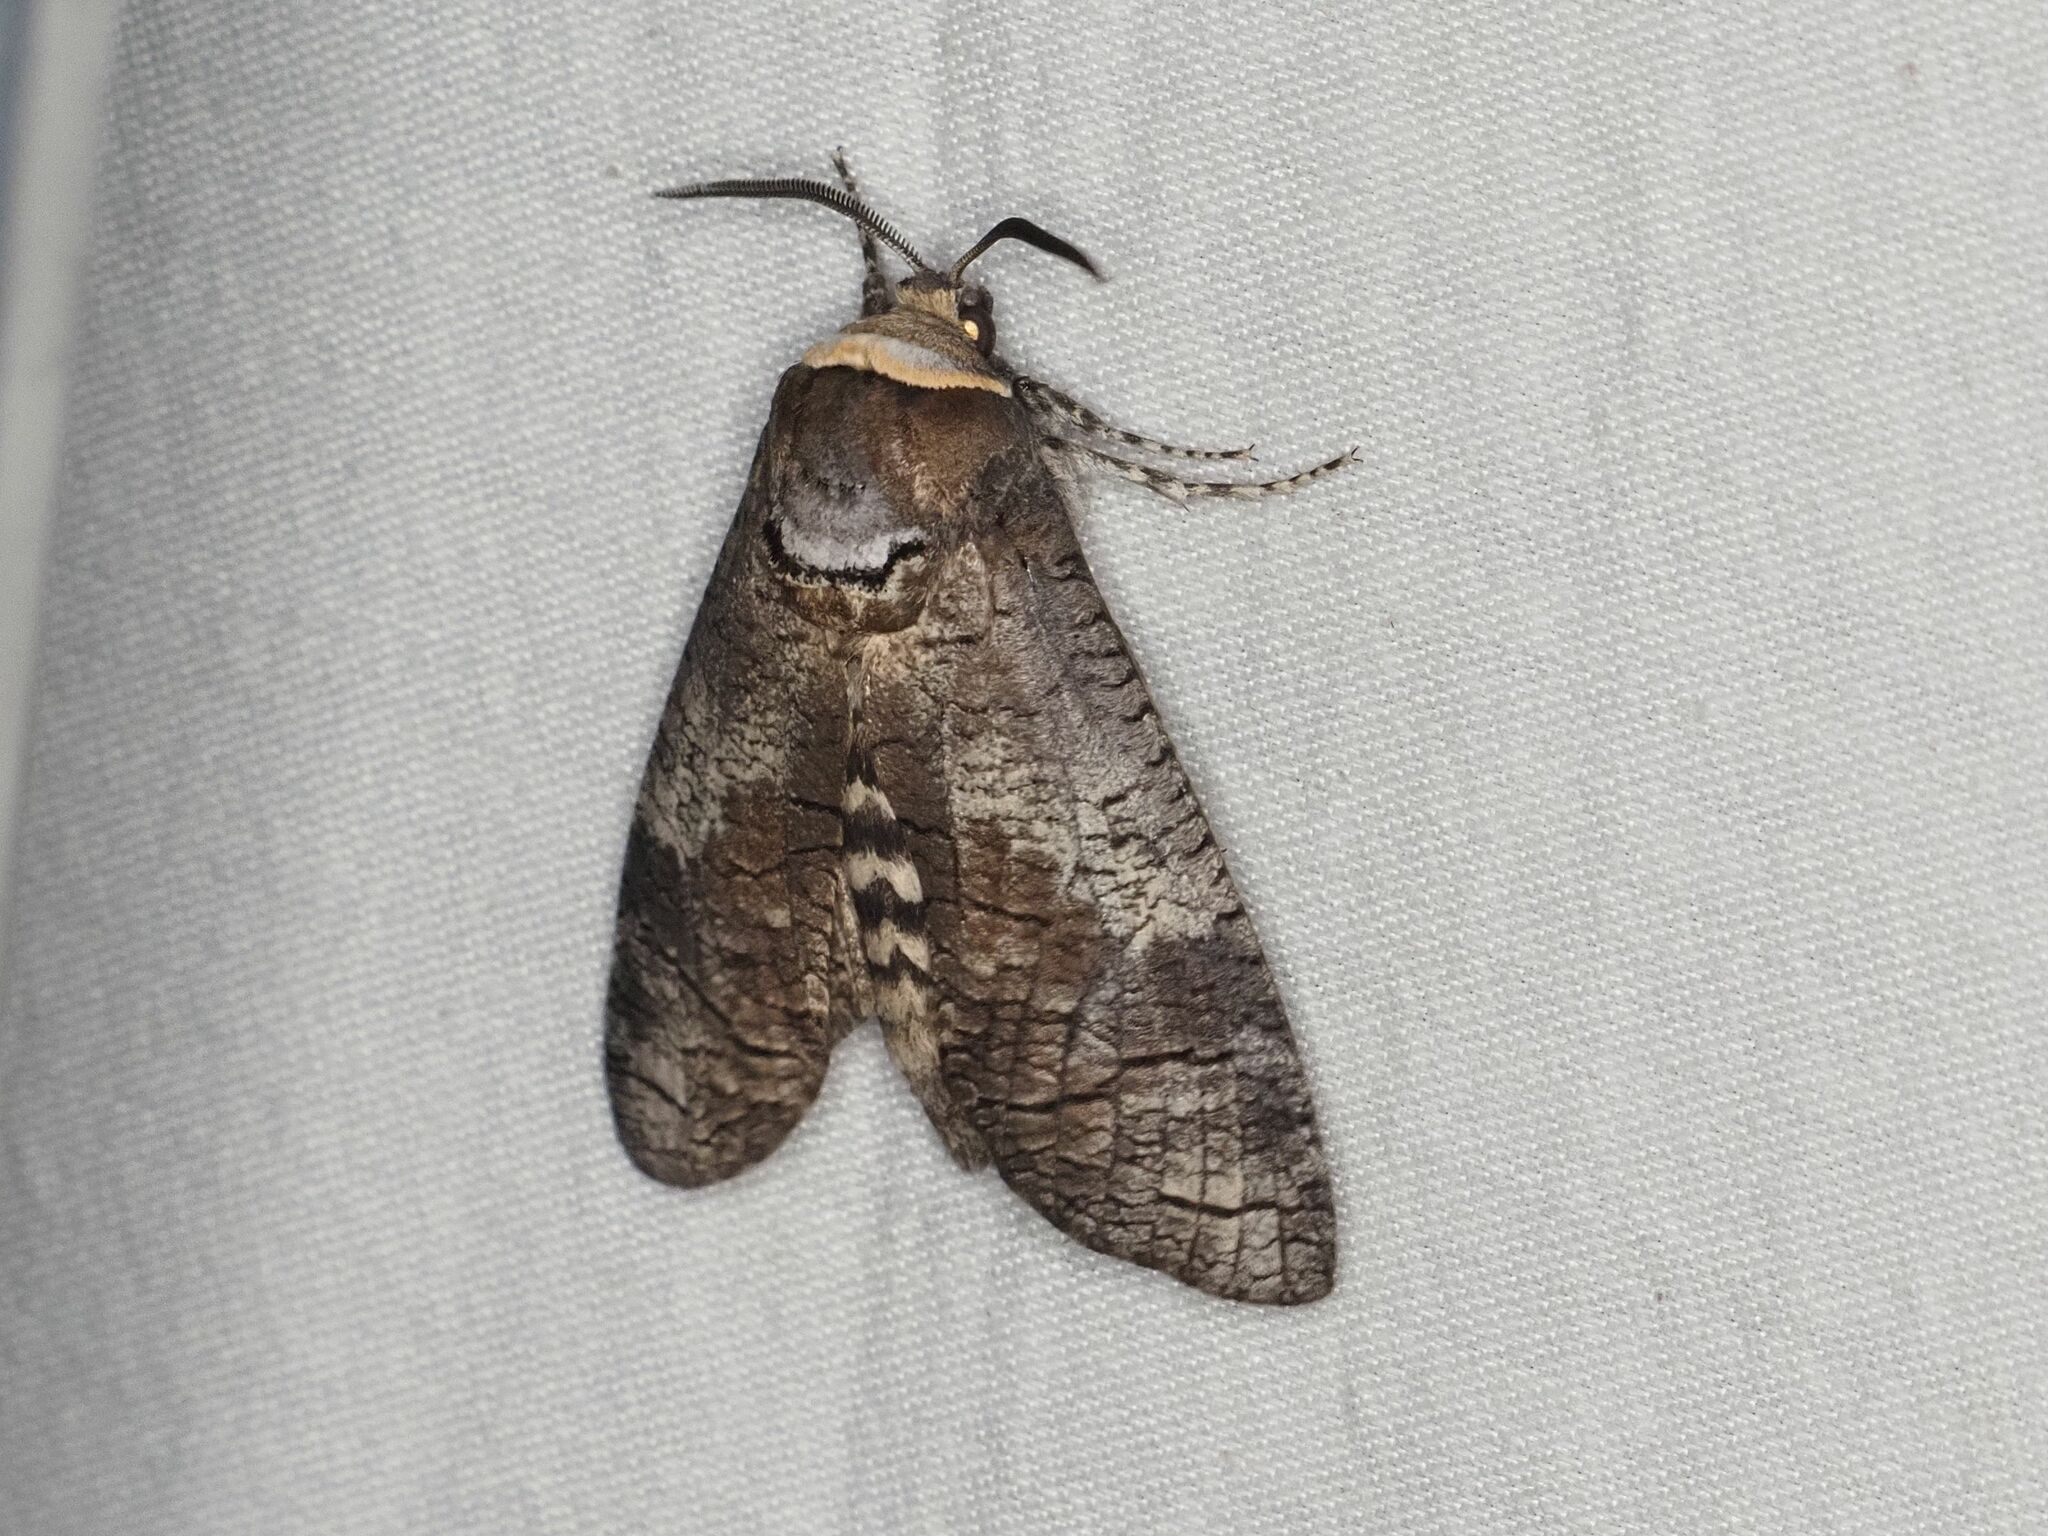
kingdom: Animalia
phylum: Arthropoda
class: Insecta
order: Lepidoptera
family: Cossidae
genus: Cossus
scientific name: Cossus cossus
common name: Goat moth
